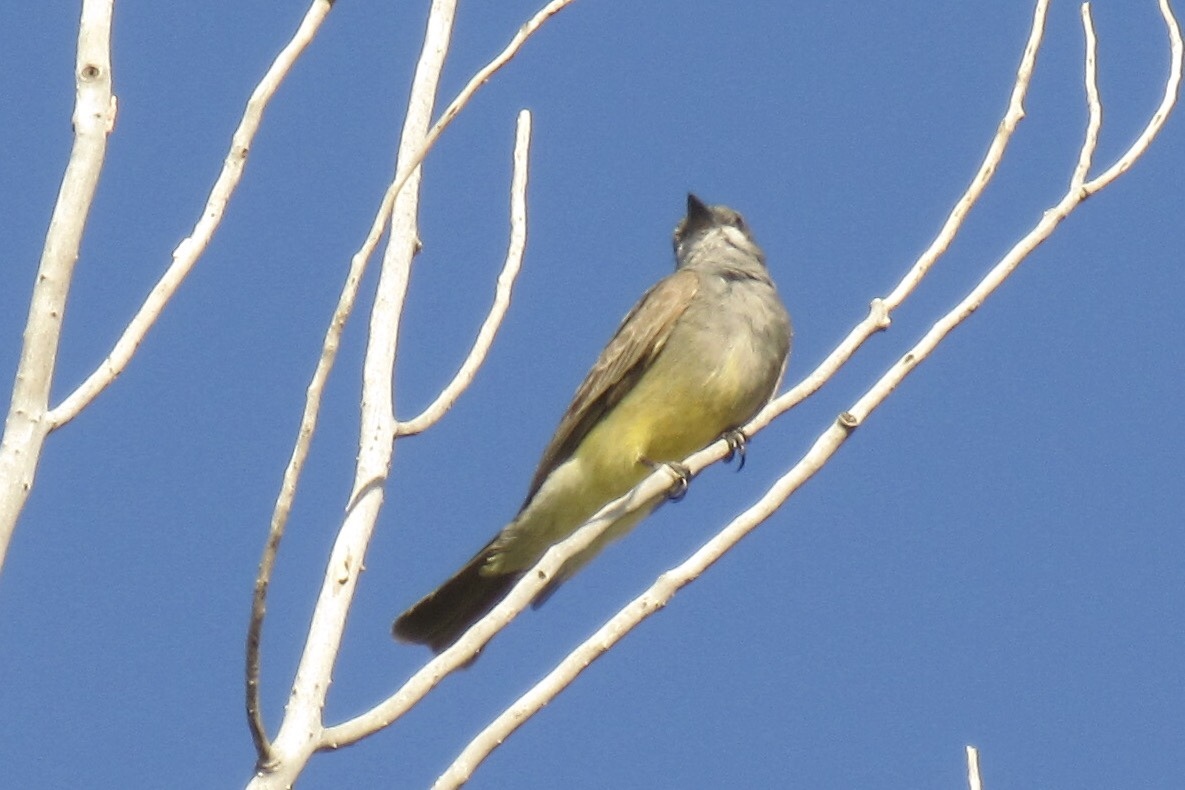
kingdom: Animalia
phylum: Chordata
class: Aves
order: Passeriformes
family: Tyrannidae
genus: Tyrannus
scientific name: Tyrannus vociferans
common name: Cassin's kingbird
